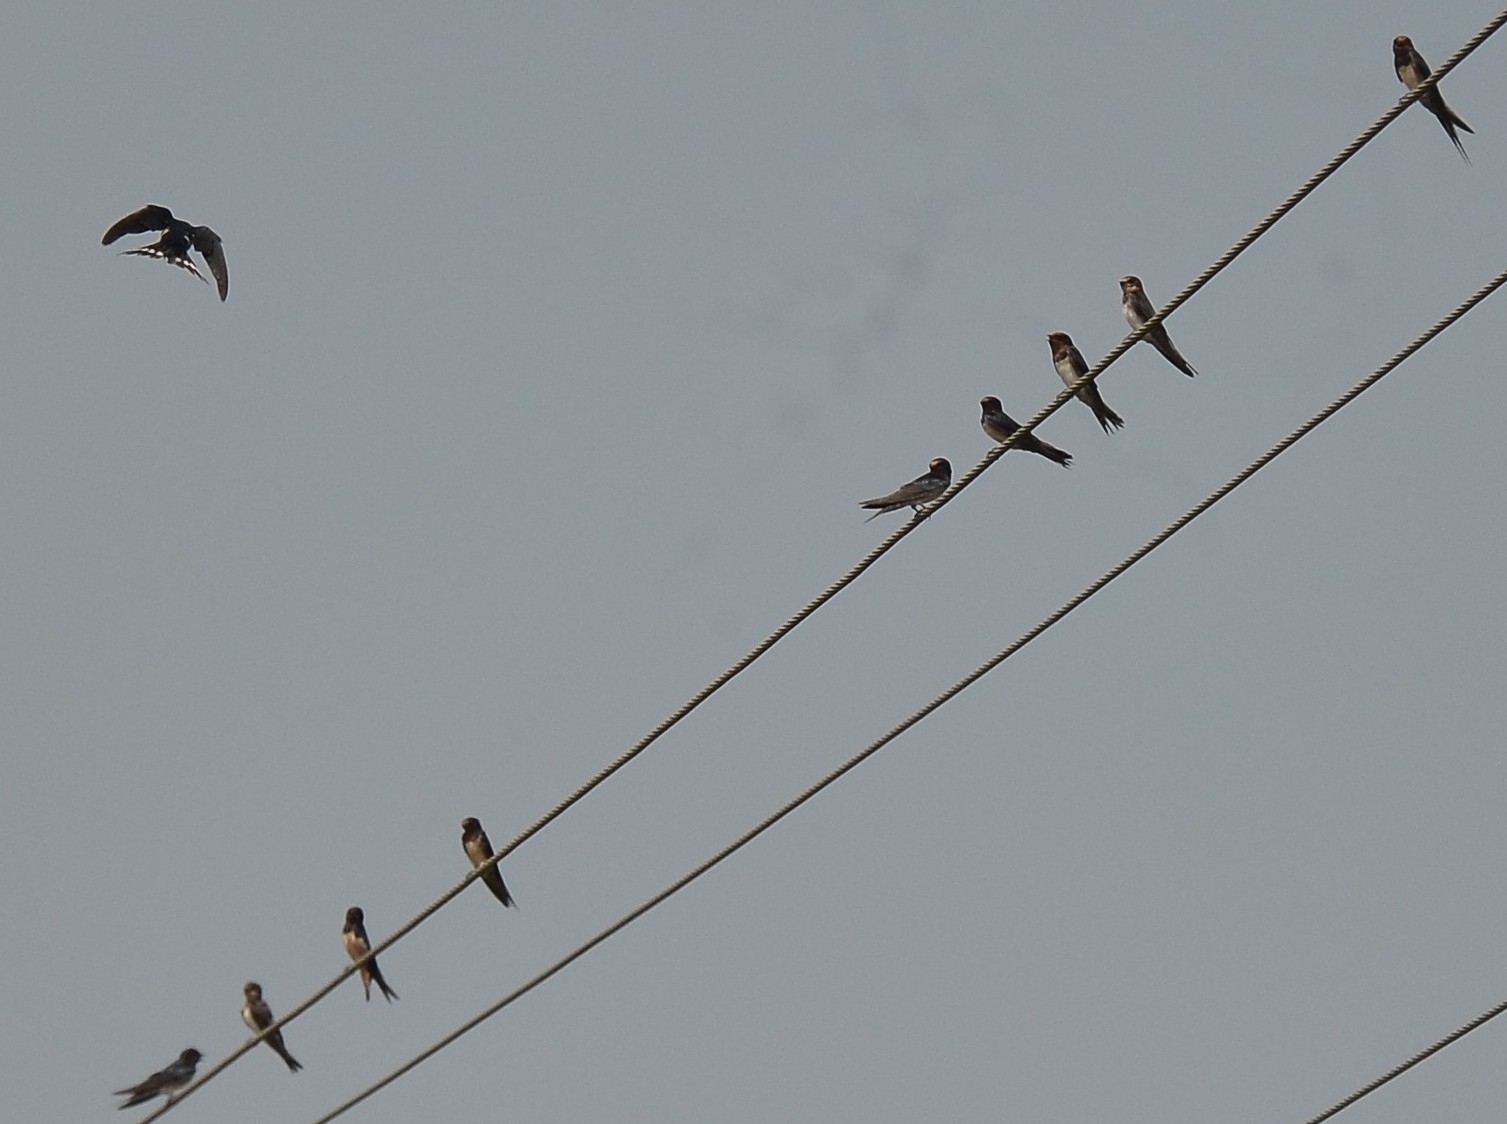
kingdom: Animalia
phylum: Chordata
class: Aves
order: Passeriformes
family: Hirundinidae
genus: Hirundo
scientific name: Hirundo rustica
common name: Barn swallow
